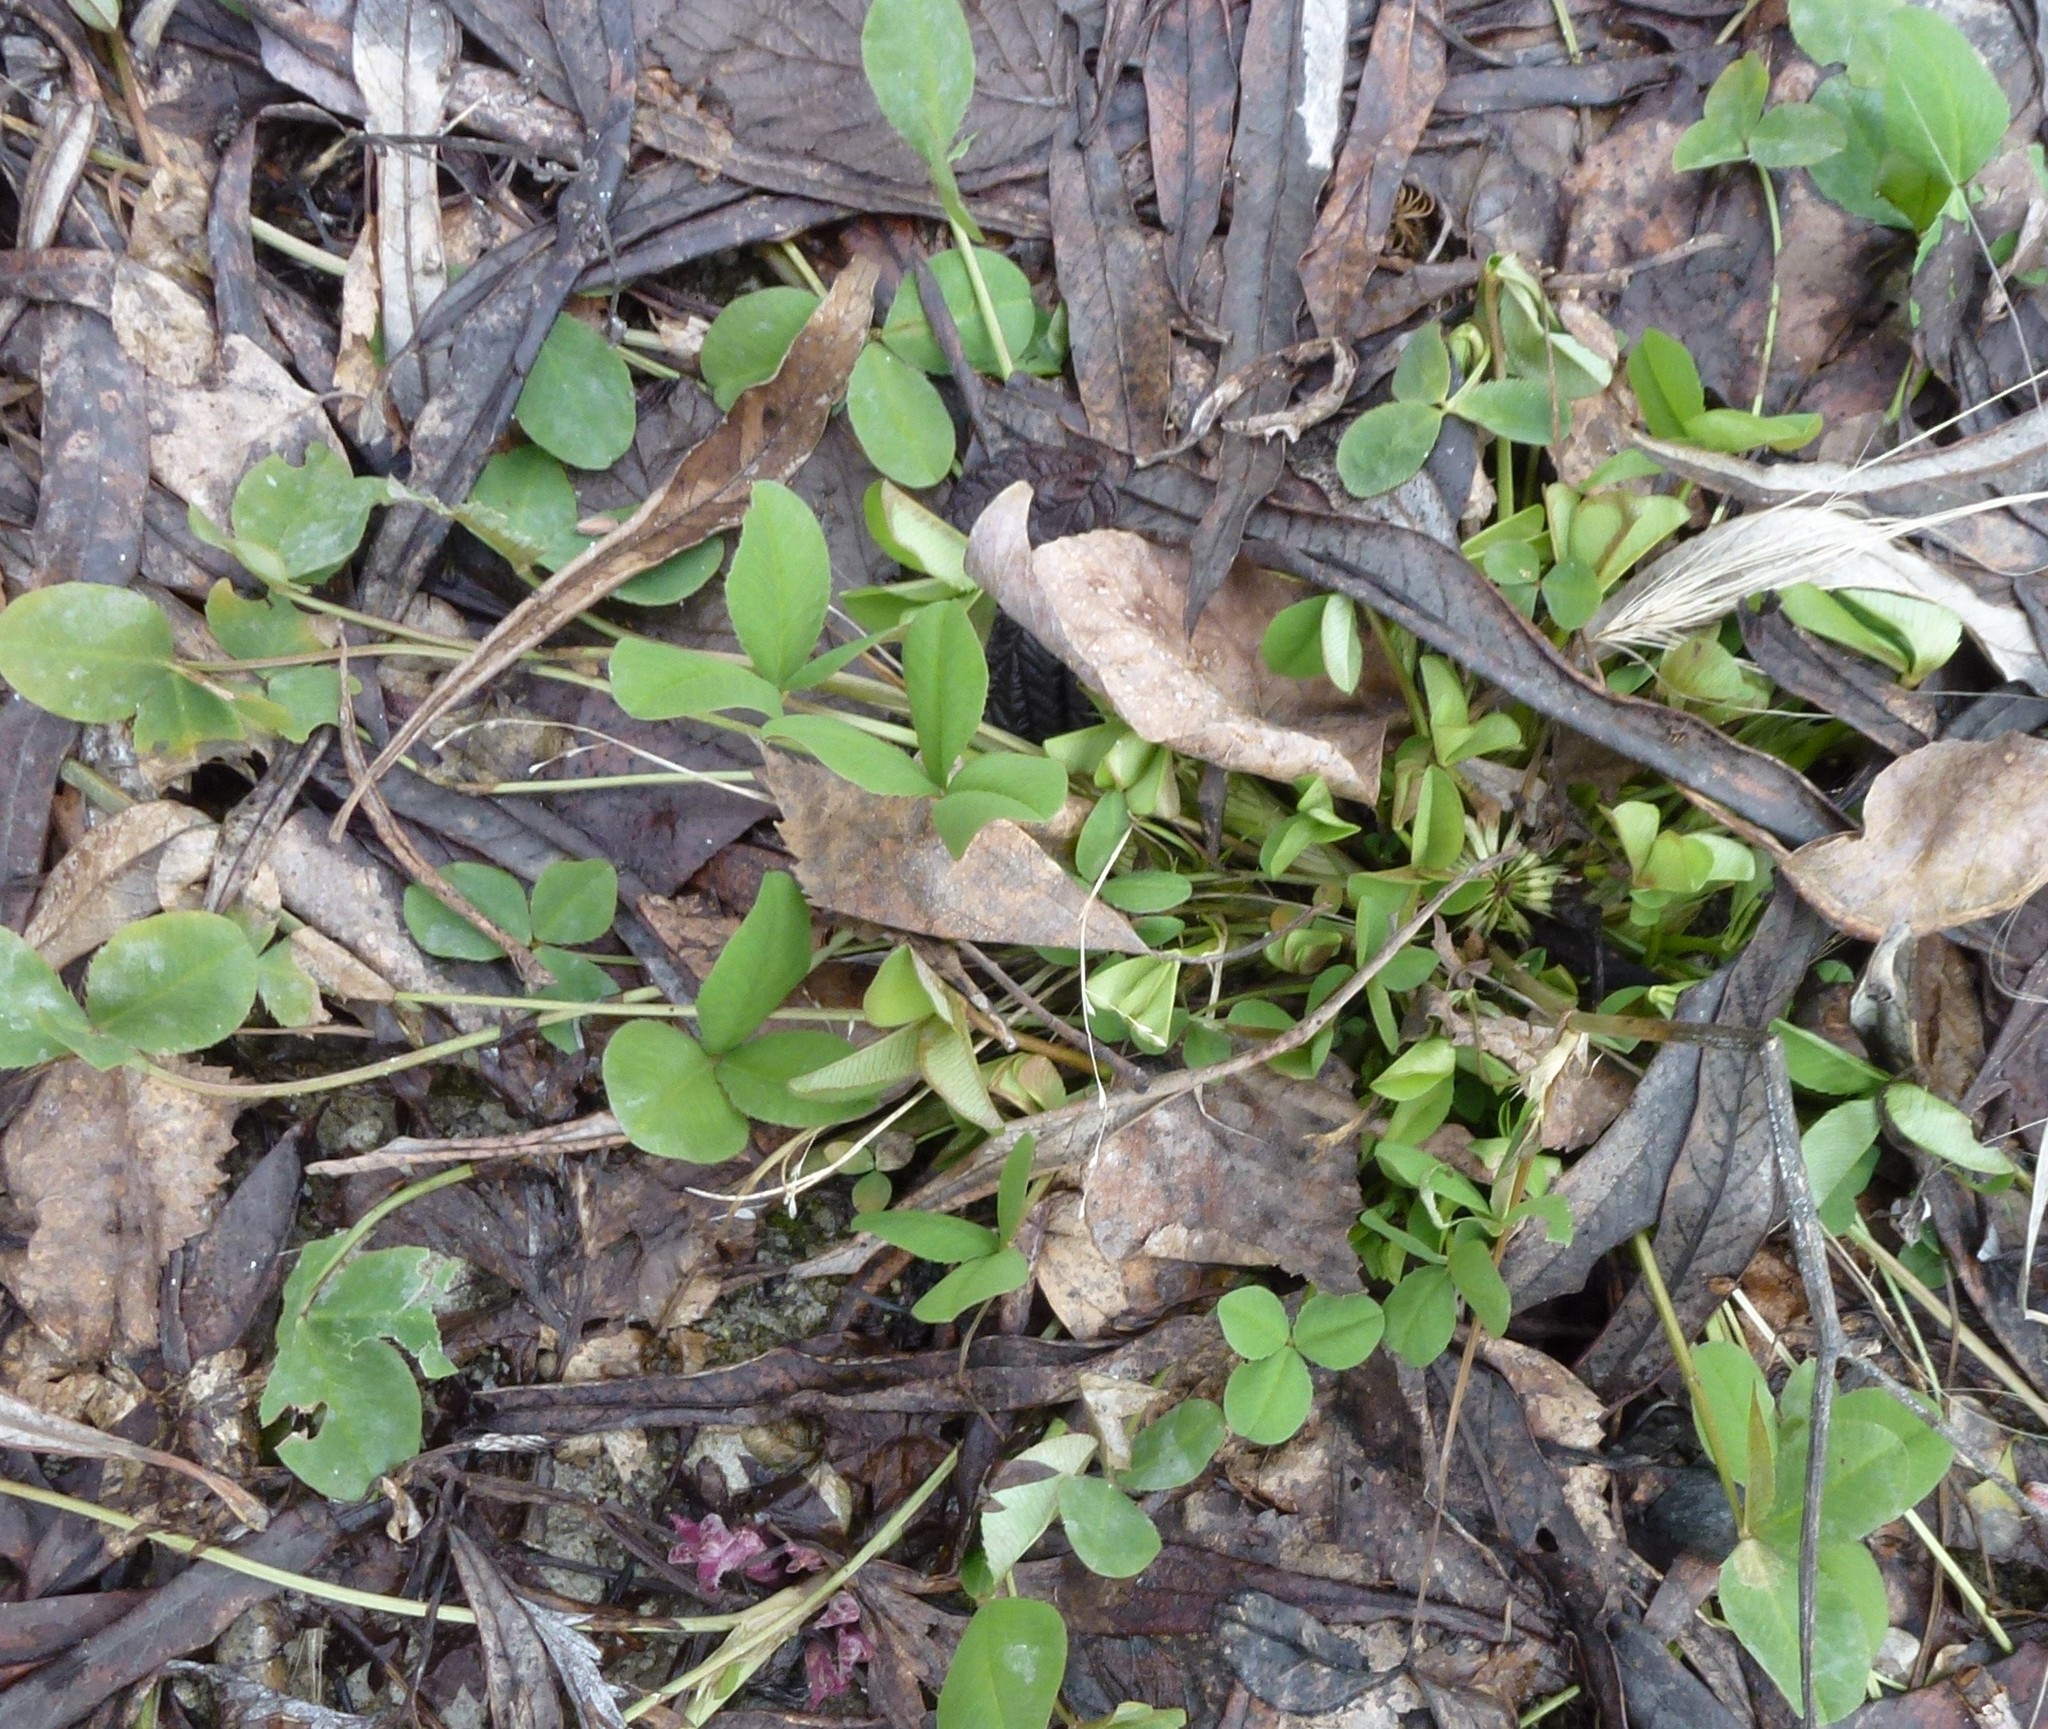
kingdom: Plantae
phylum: Tracheophyta
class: Magnoliopsida
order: Fabales
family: Fabaceae
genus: Trifolium
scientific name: Trifolium repens
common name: White clover
